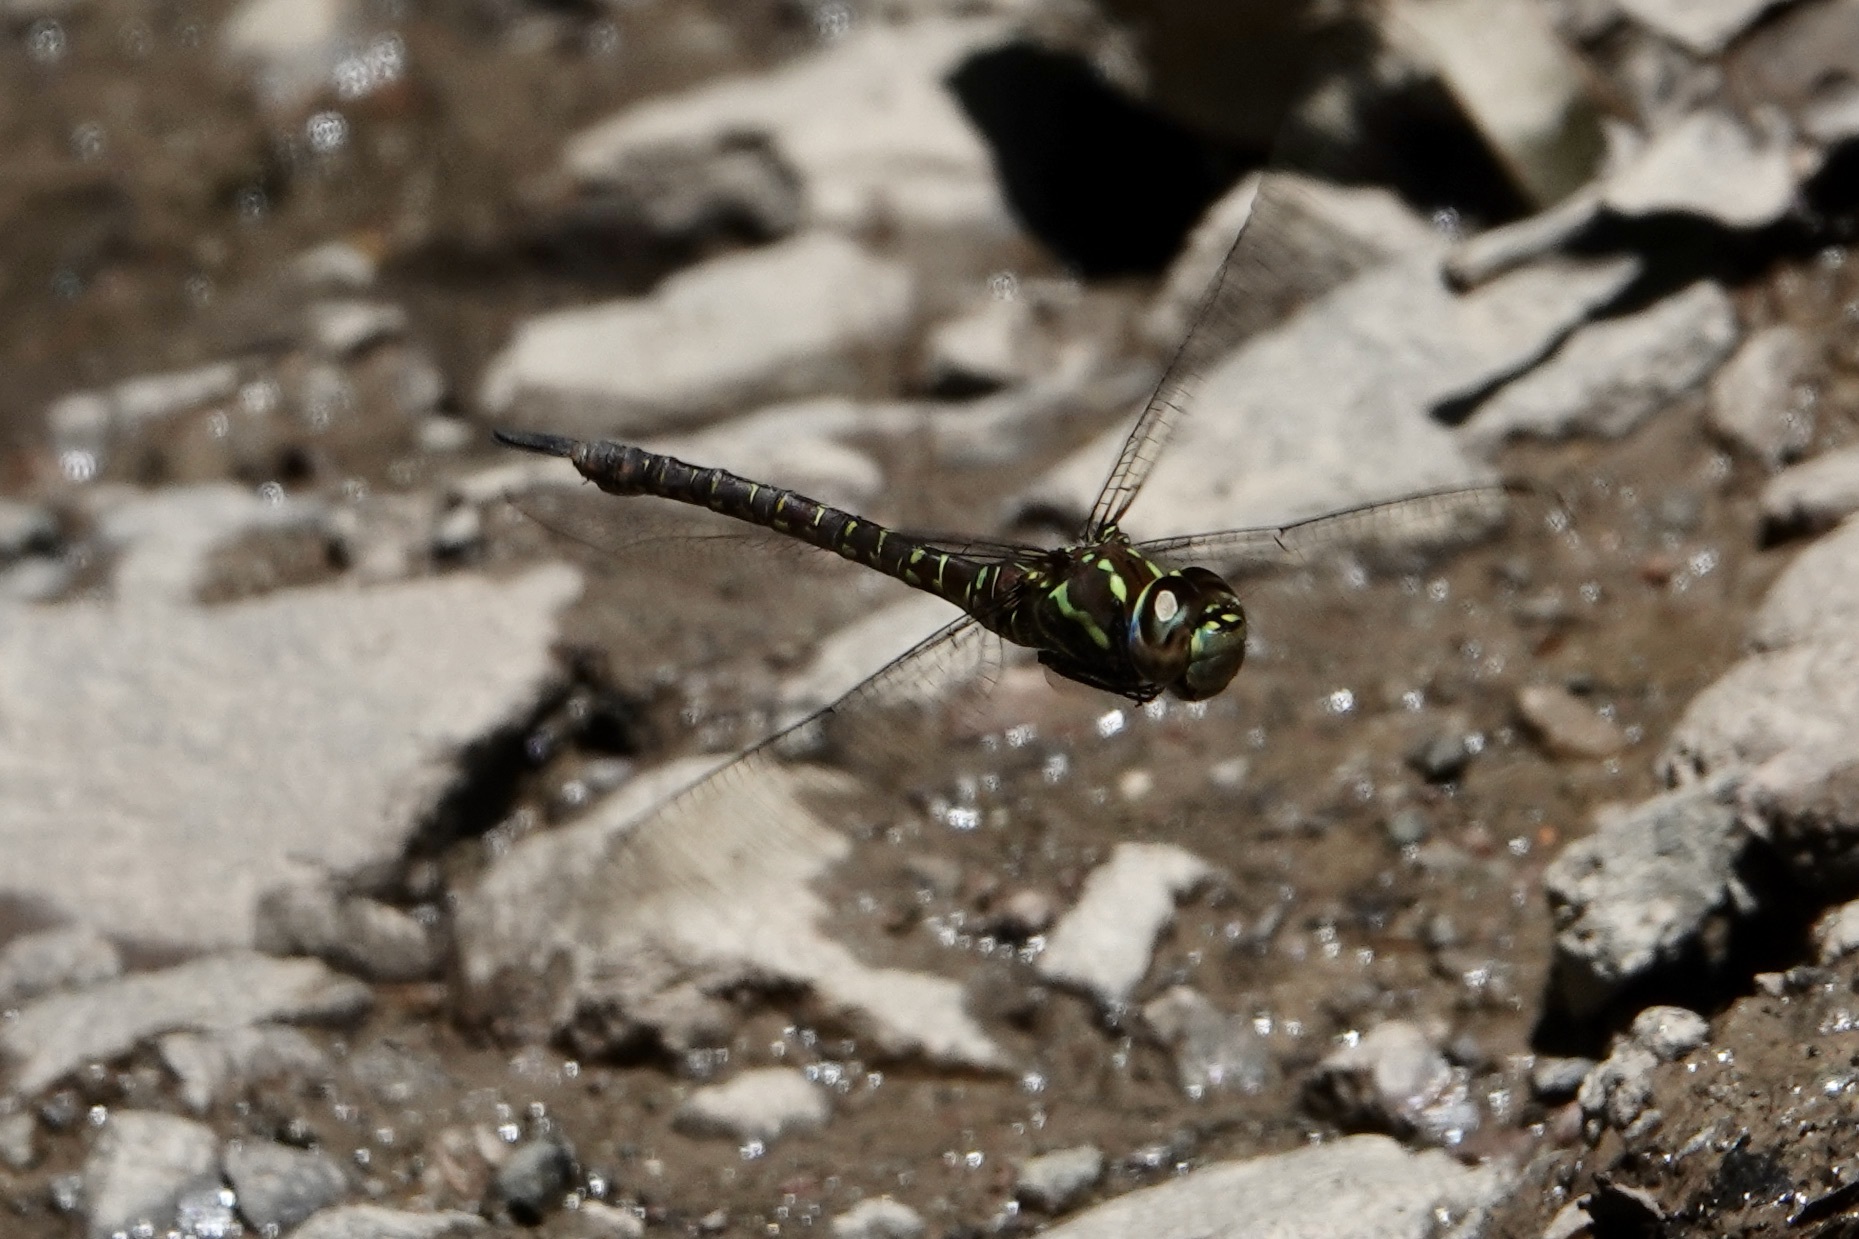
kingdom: Animalia
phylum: Arthropoda
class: Insecta
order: Odonata
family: Aeshnidae
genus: Rhionaeschna
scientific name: Rhionaeschna psilus
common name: Turquoise-tipped darner
